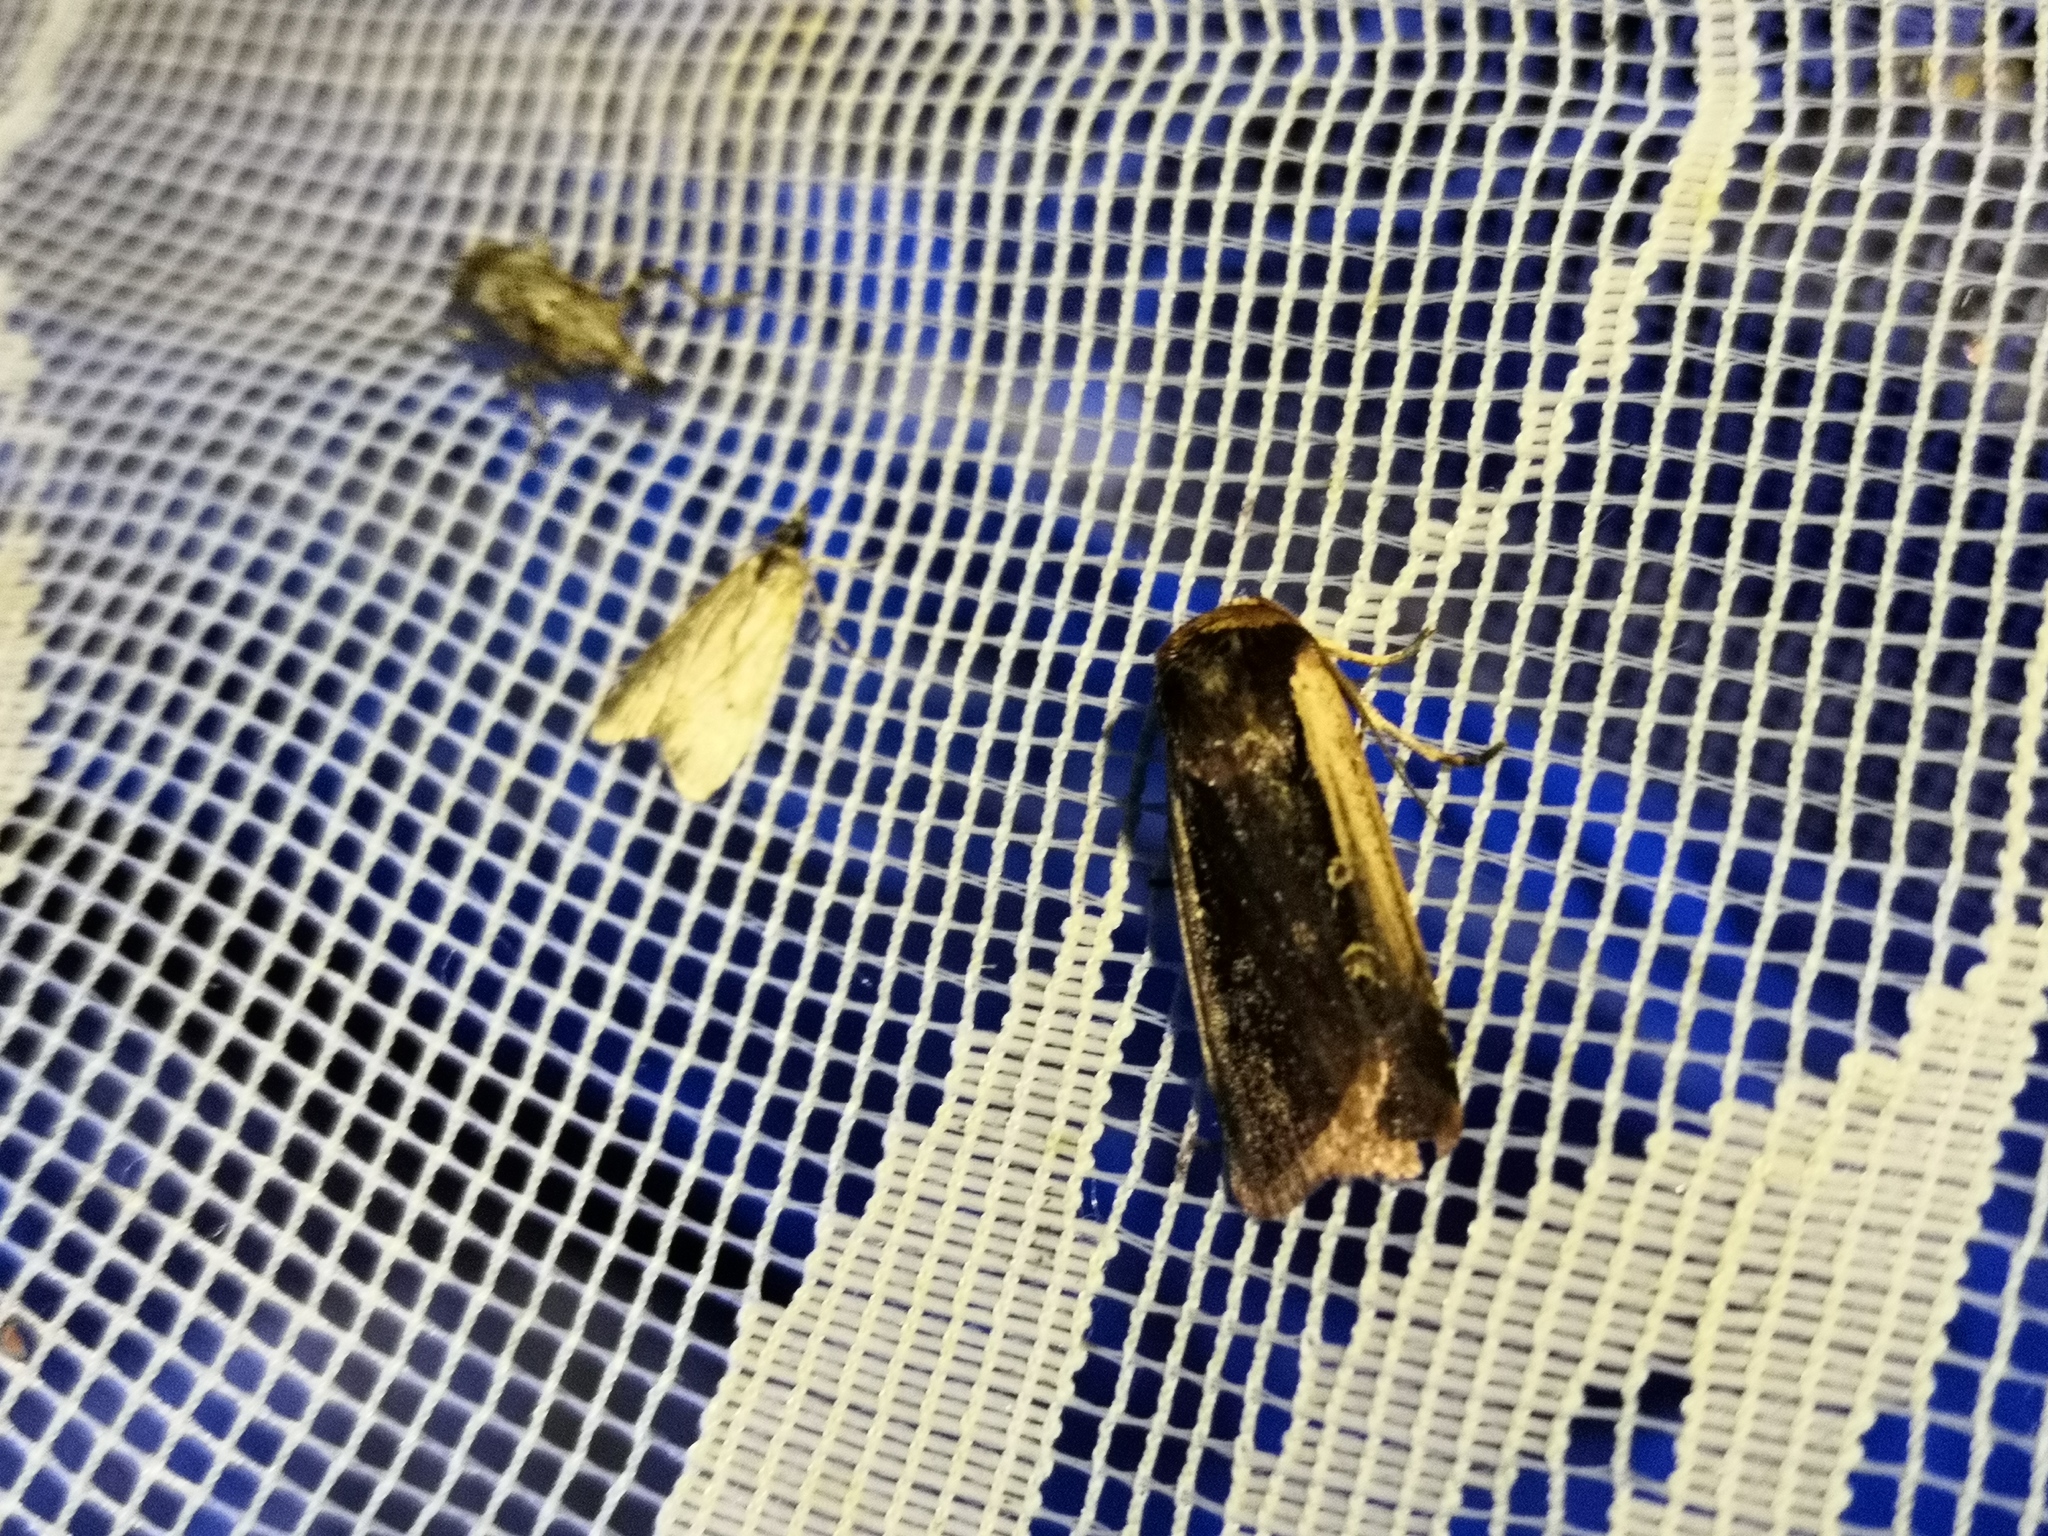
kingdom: Animalia
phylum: Arthropoda
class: Insecta
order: Lepidoptera
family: Noctuidae
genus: Ochropleura
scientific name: Ochropleura plecta
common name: Flame shoulder
